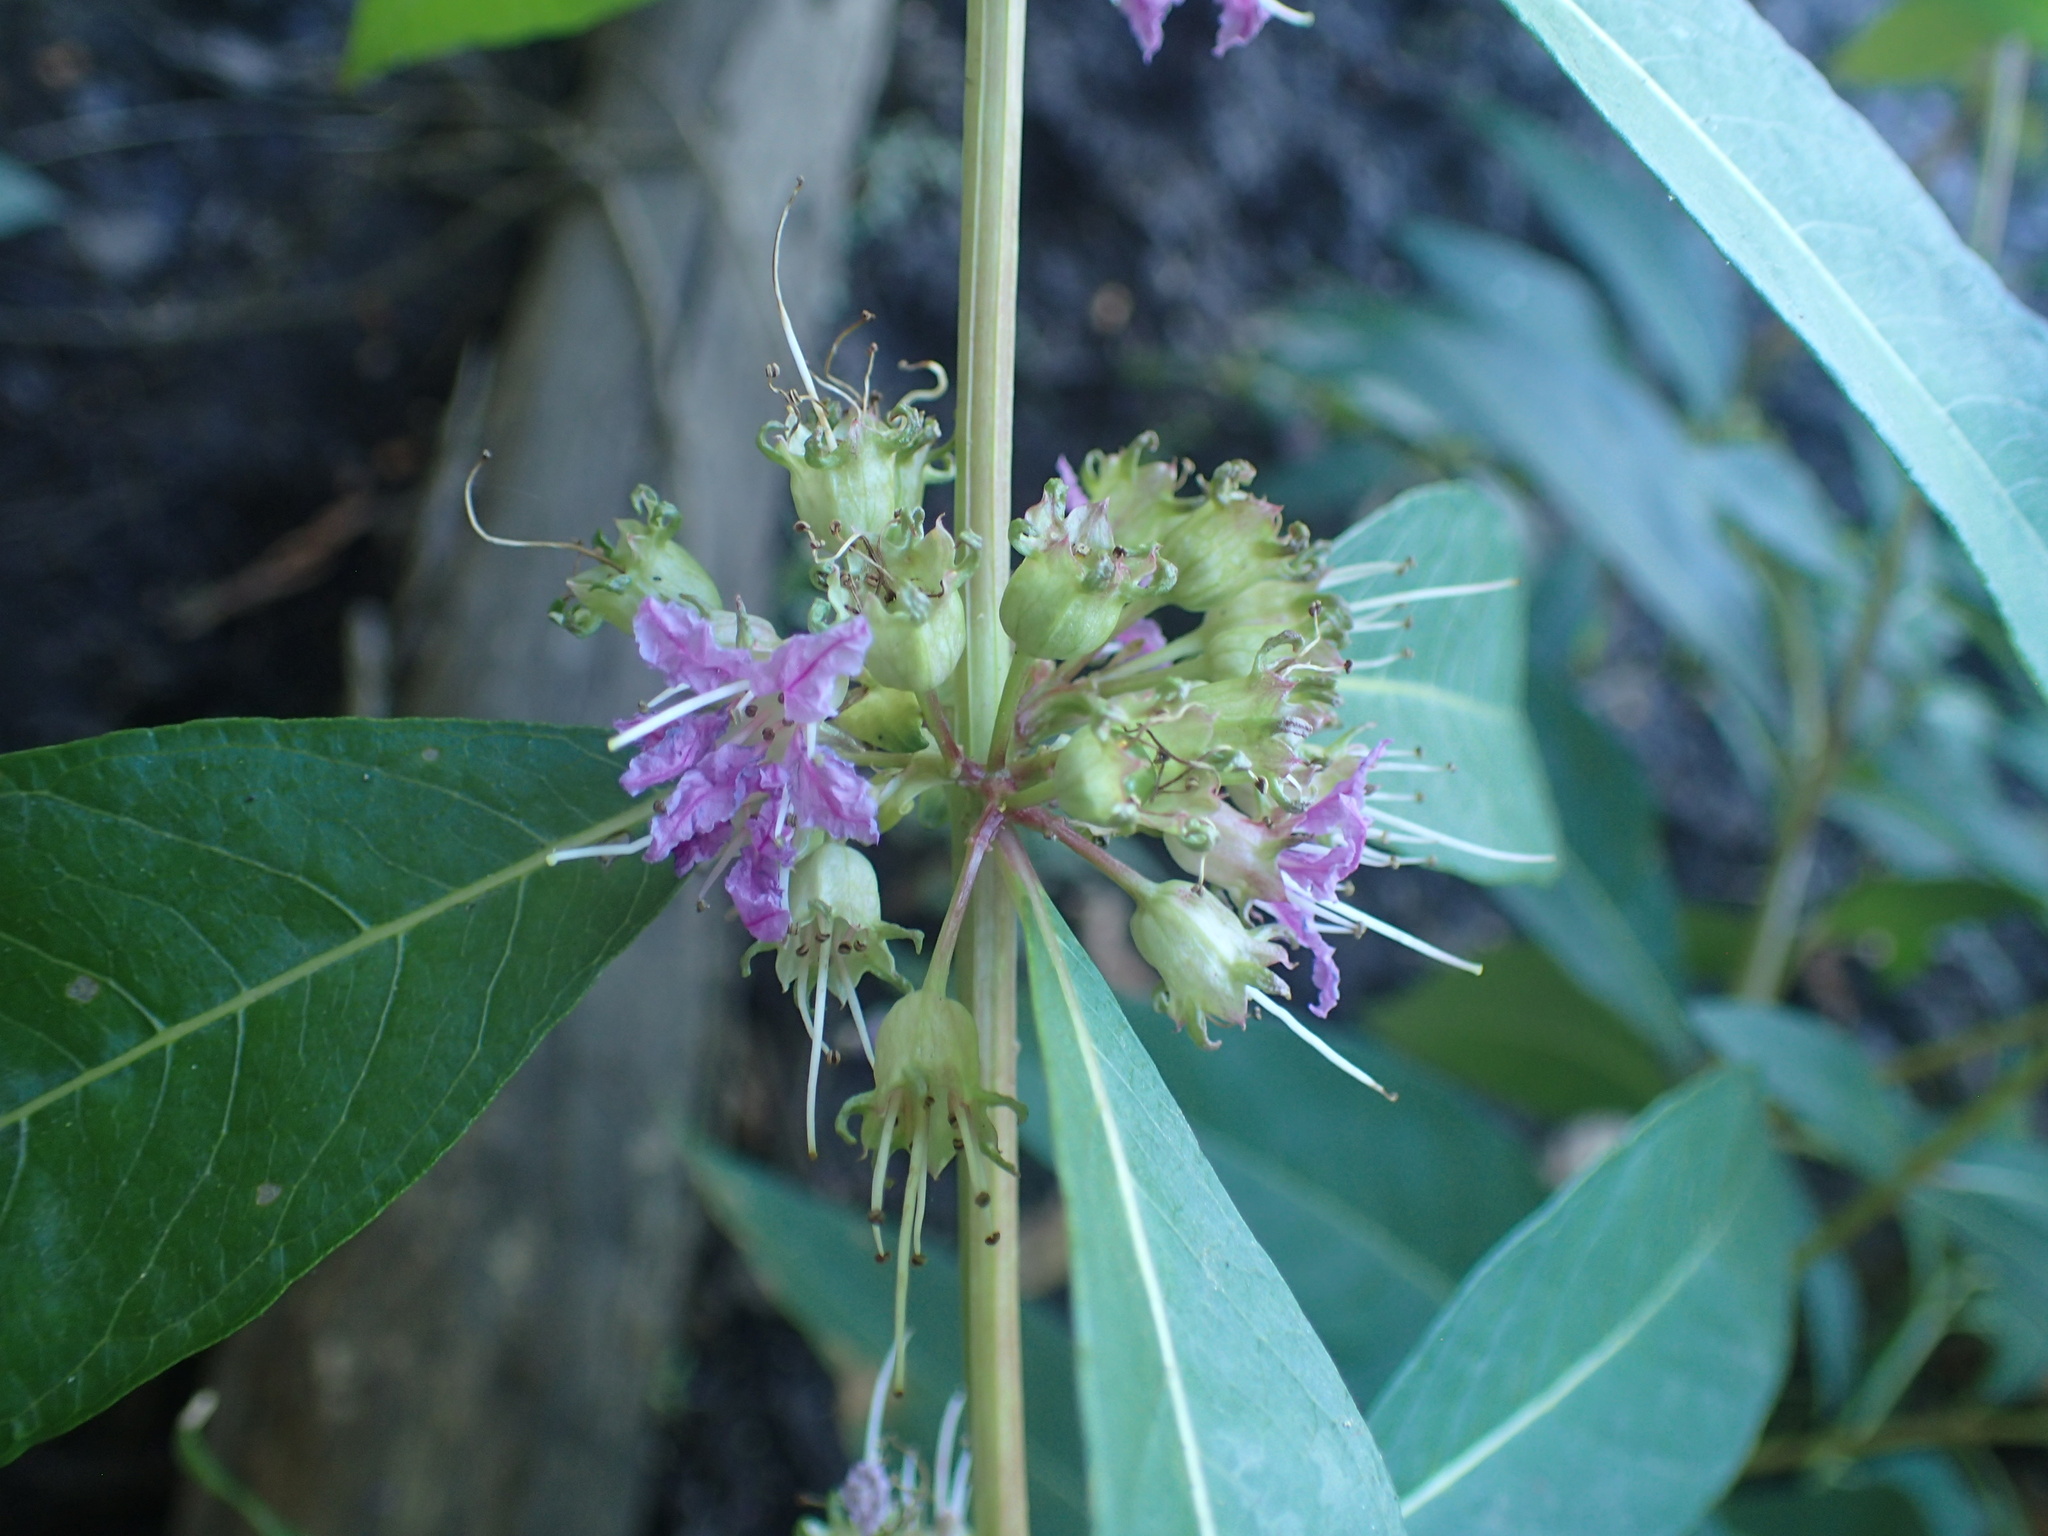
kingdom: Plantae
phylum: Tracheophyta
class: Magnoliopsida
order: Myrtales
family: Lythraceae
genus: Decodon
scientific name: Decodon verticillatus
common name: Hairy swamp loosestrife
